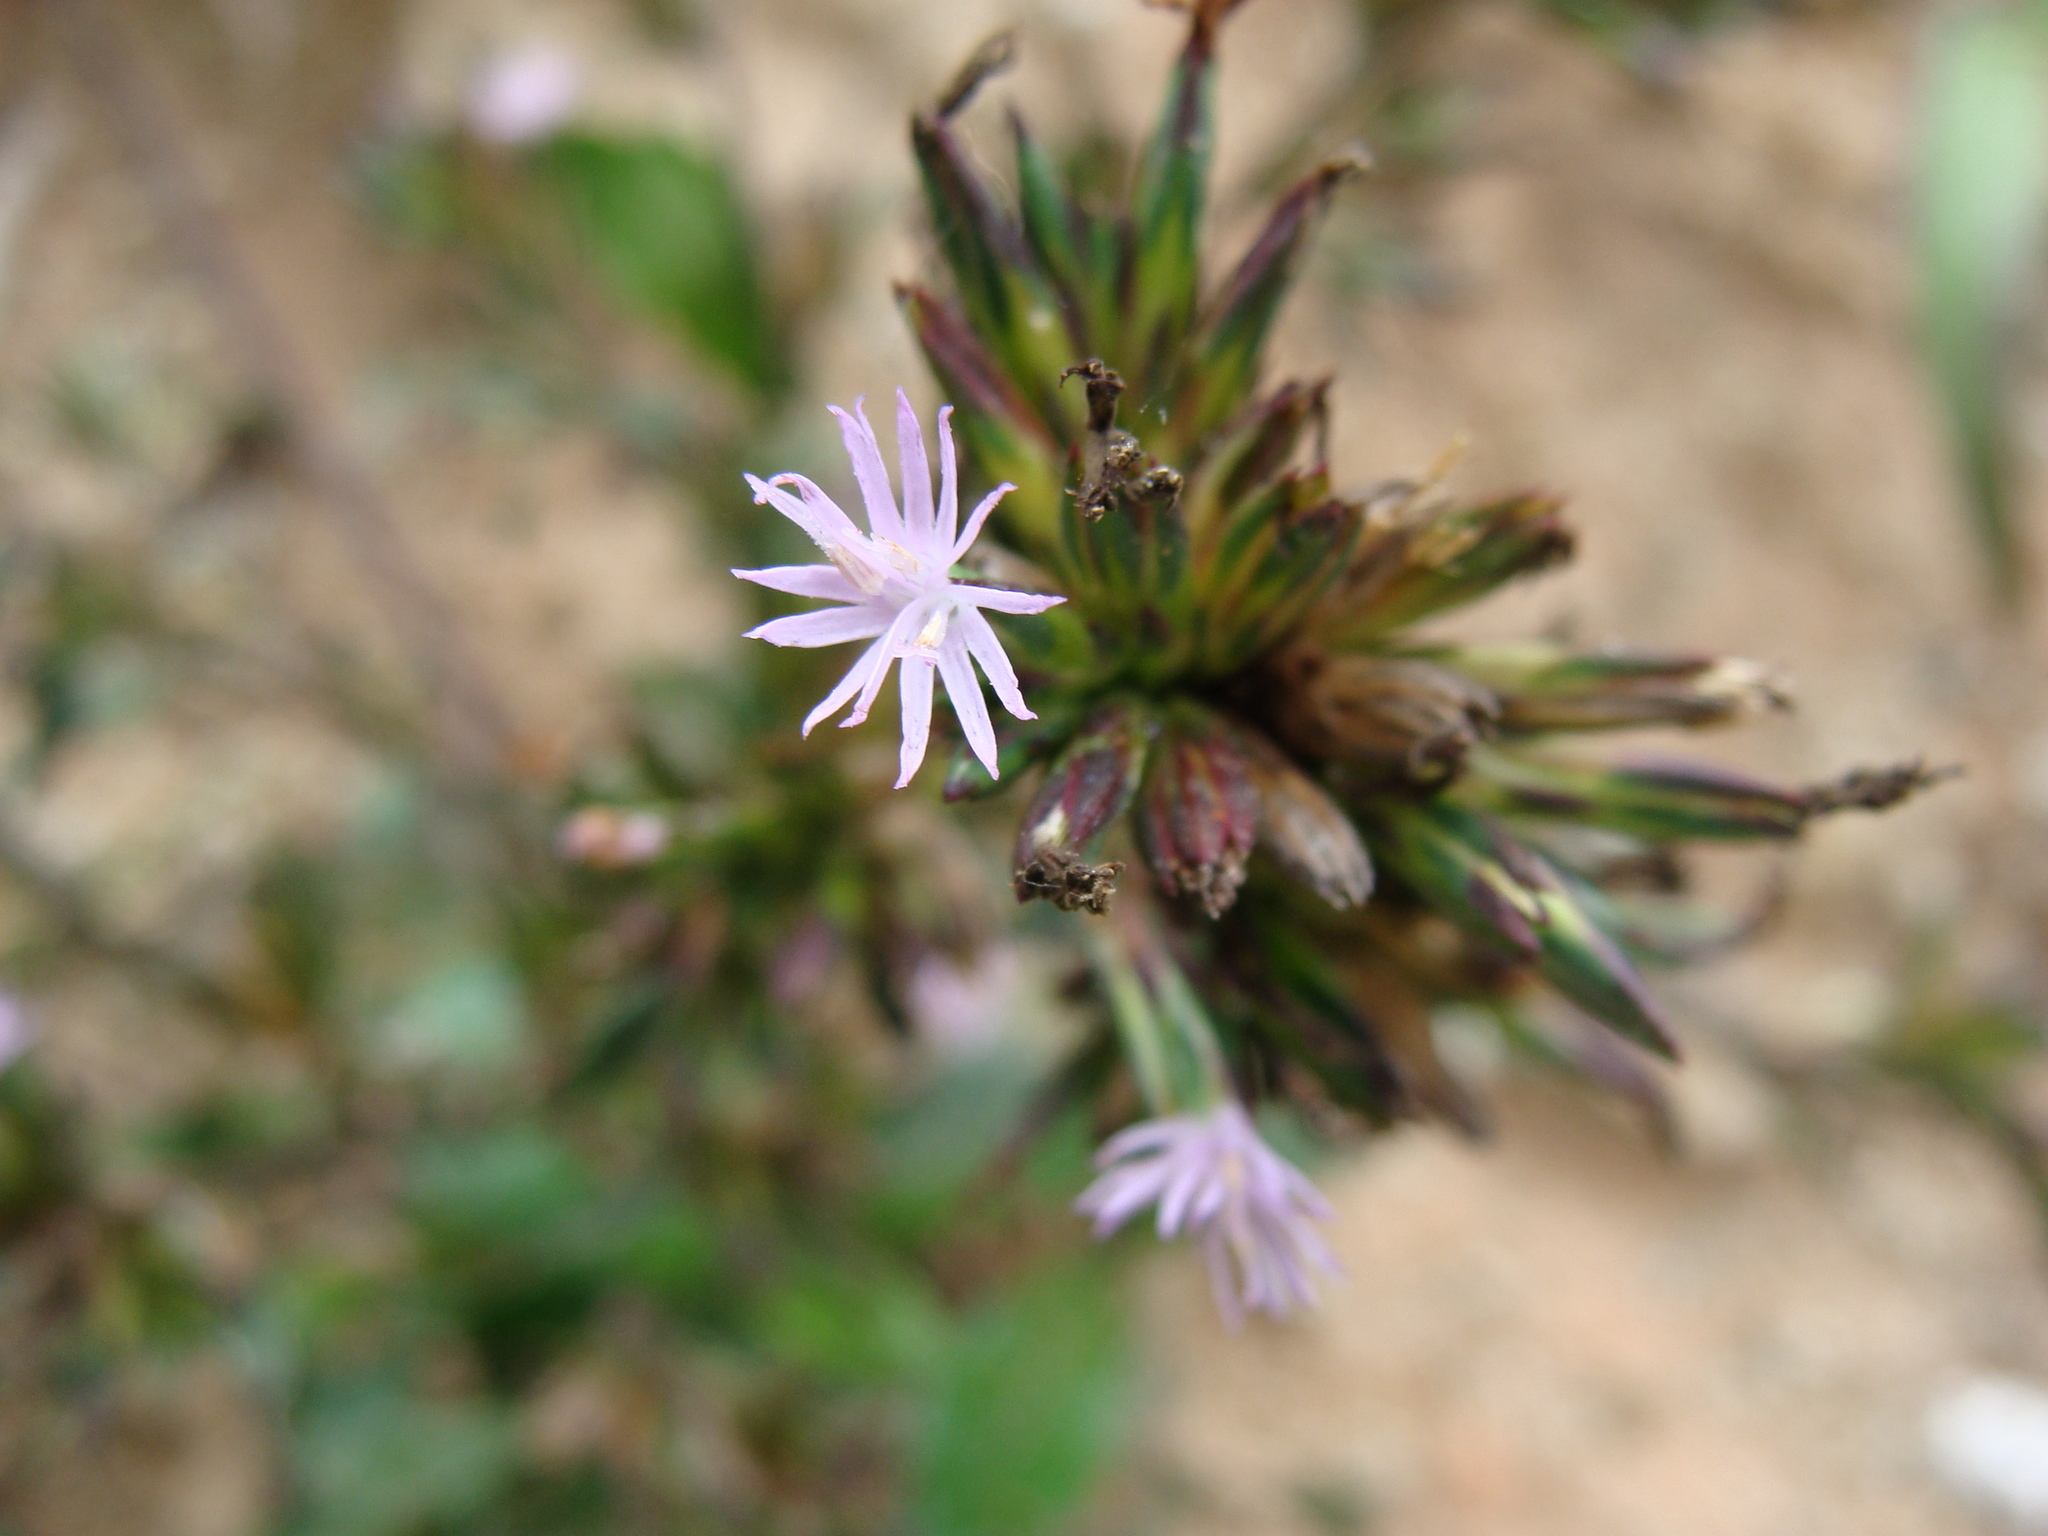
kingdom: Plantae
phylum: Tracheophyta
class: Magnoliopsida
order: Asterales
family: Asteraceae
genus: Pseudelephantopus
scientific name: Pseudelephantopus spicatus
